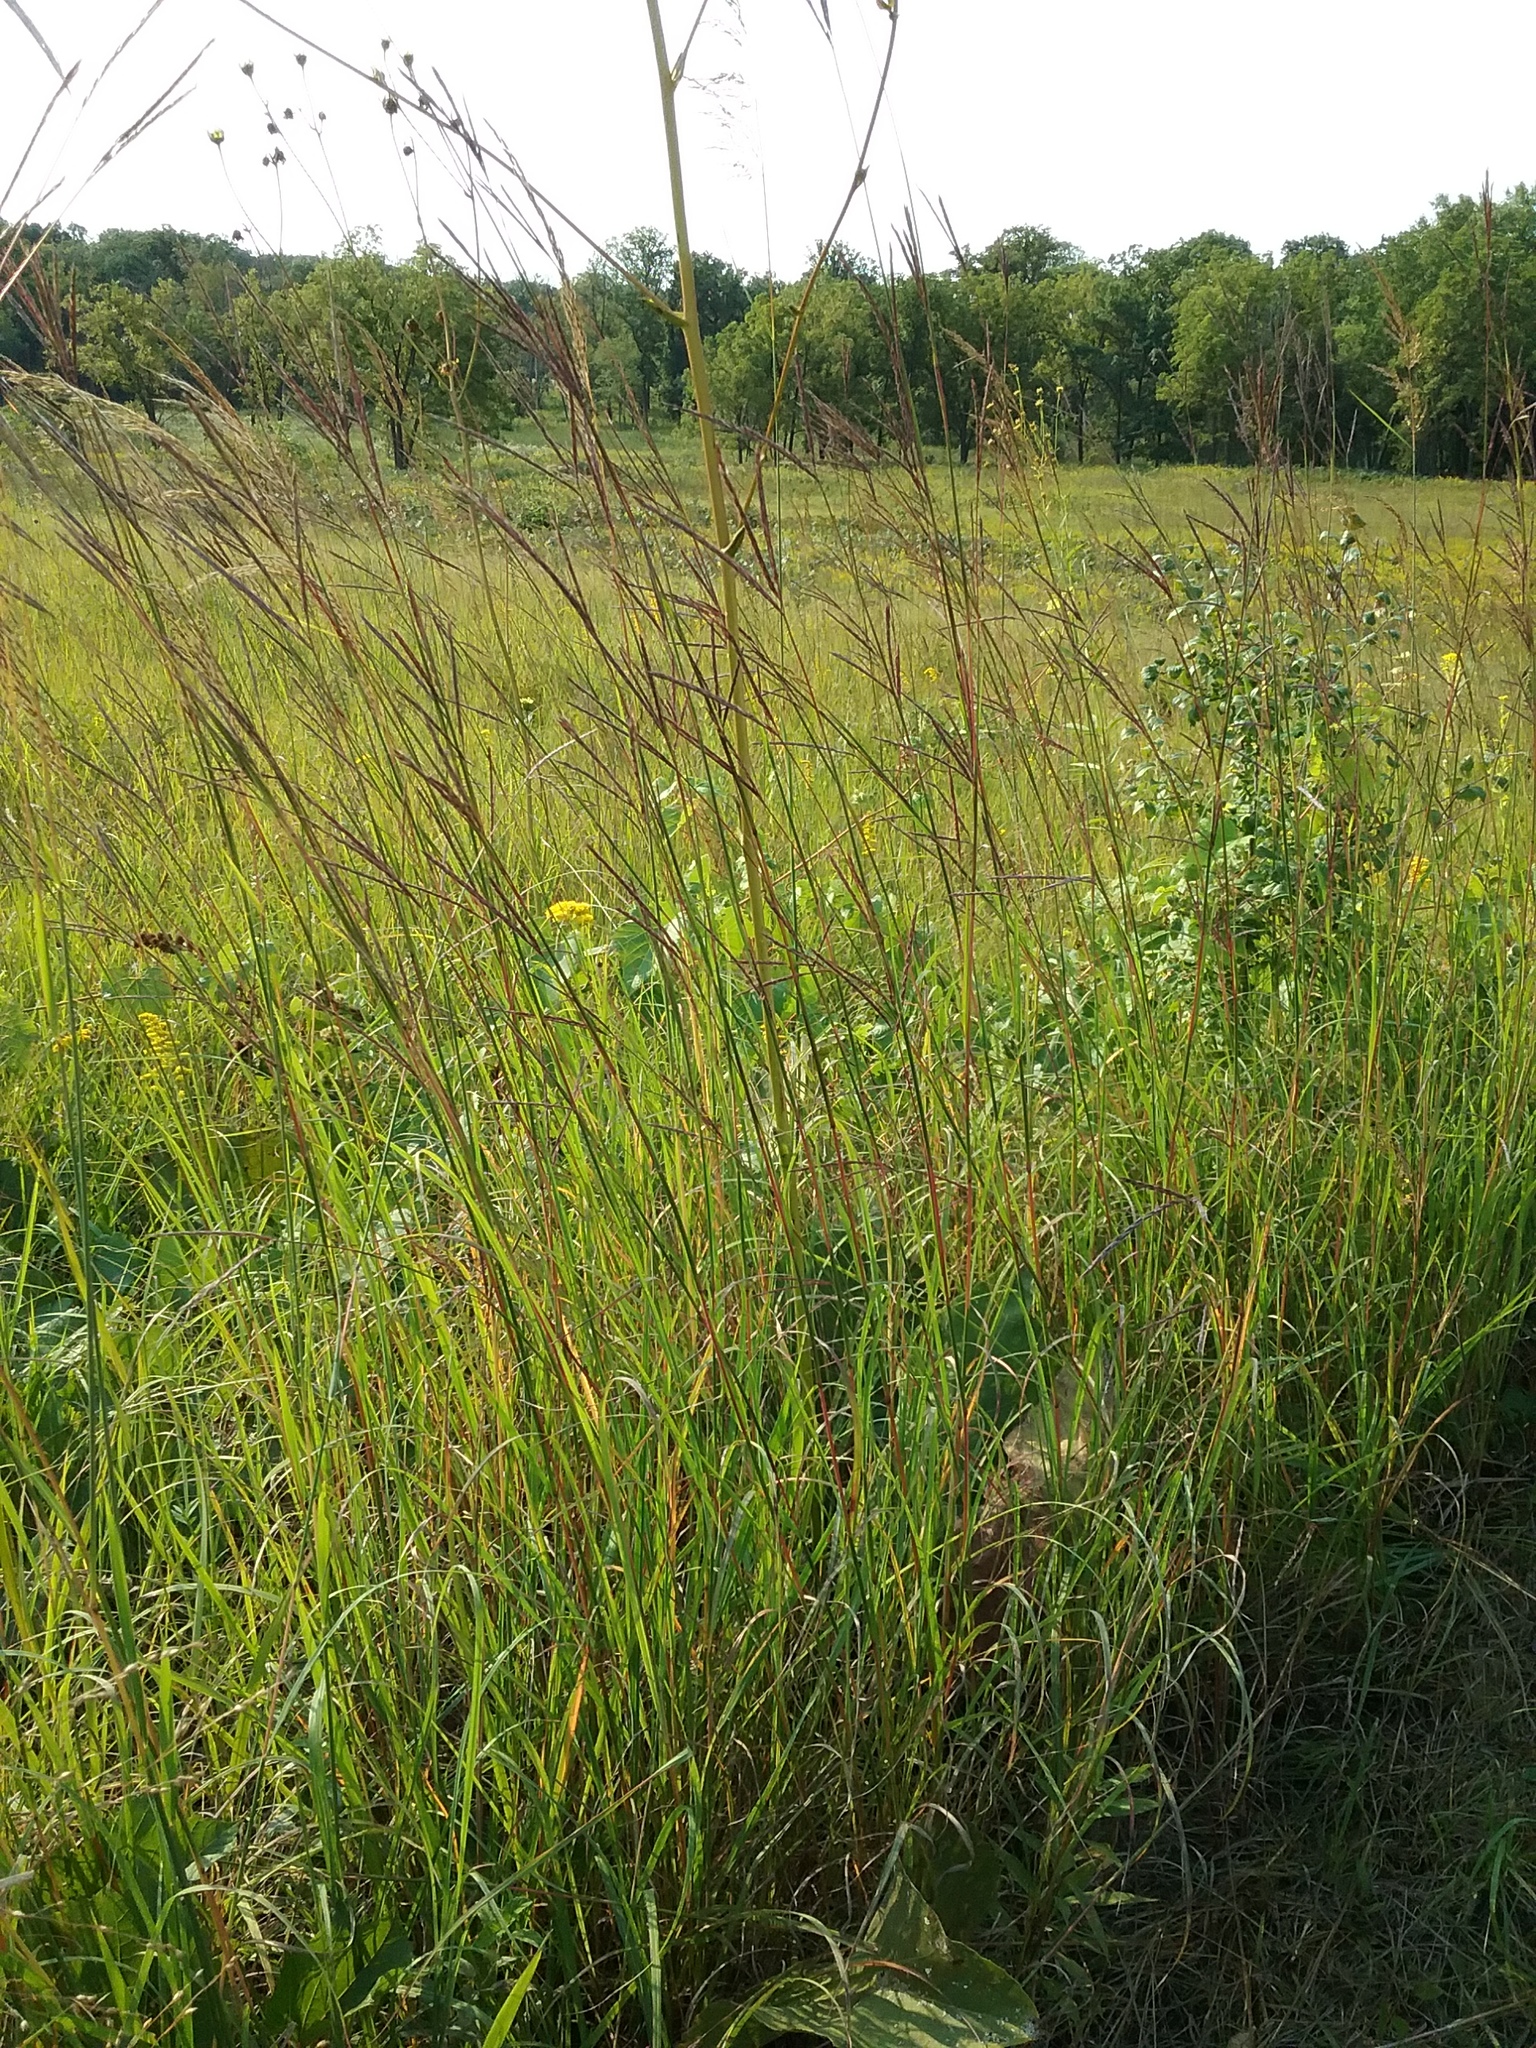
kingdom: Plantae
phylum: Tracheophyta
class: Liliopsida
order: Poales
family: Poaceae
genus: Andropogon
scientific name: Andropogon gerardi
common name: Big bluestem
